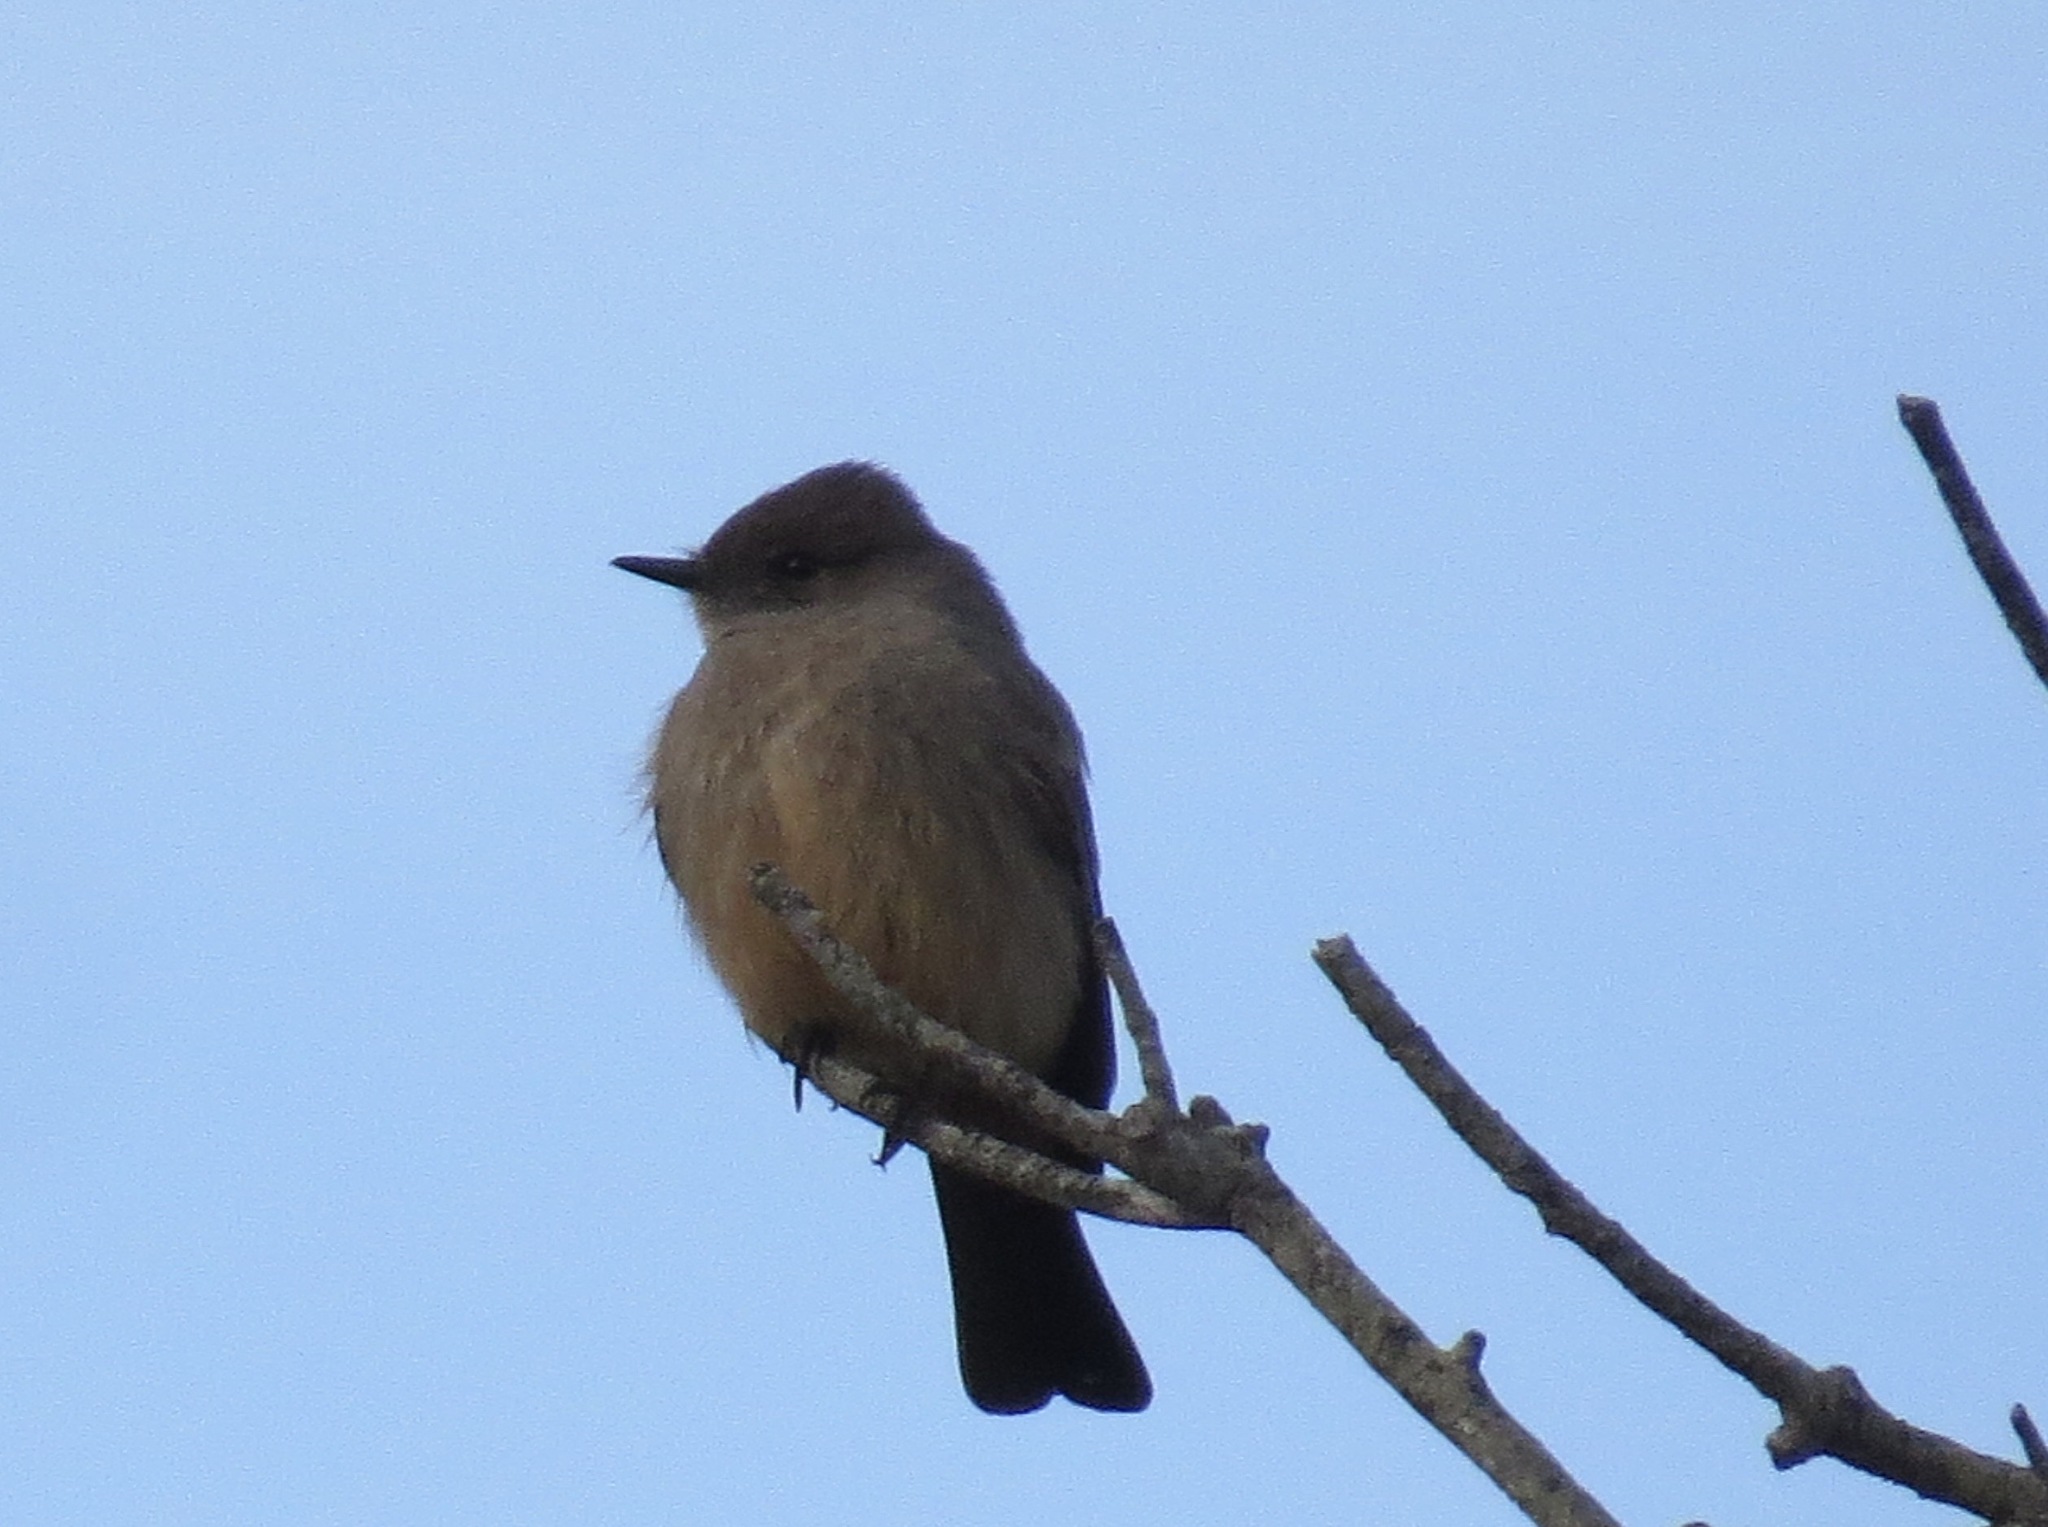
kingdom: Animalia
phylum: Chordata
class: Aves
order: Passeriformes
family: Tyrannidae
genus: Sayornis
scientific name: Sayornis saya
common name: Say's phoebe
